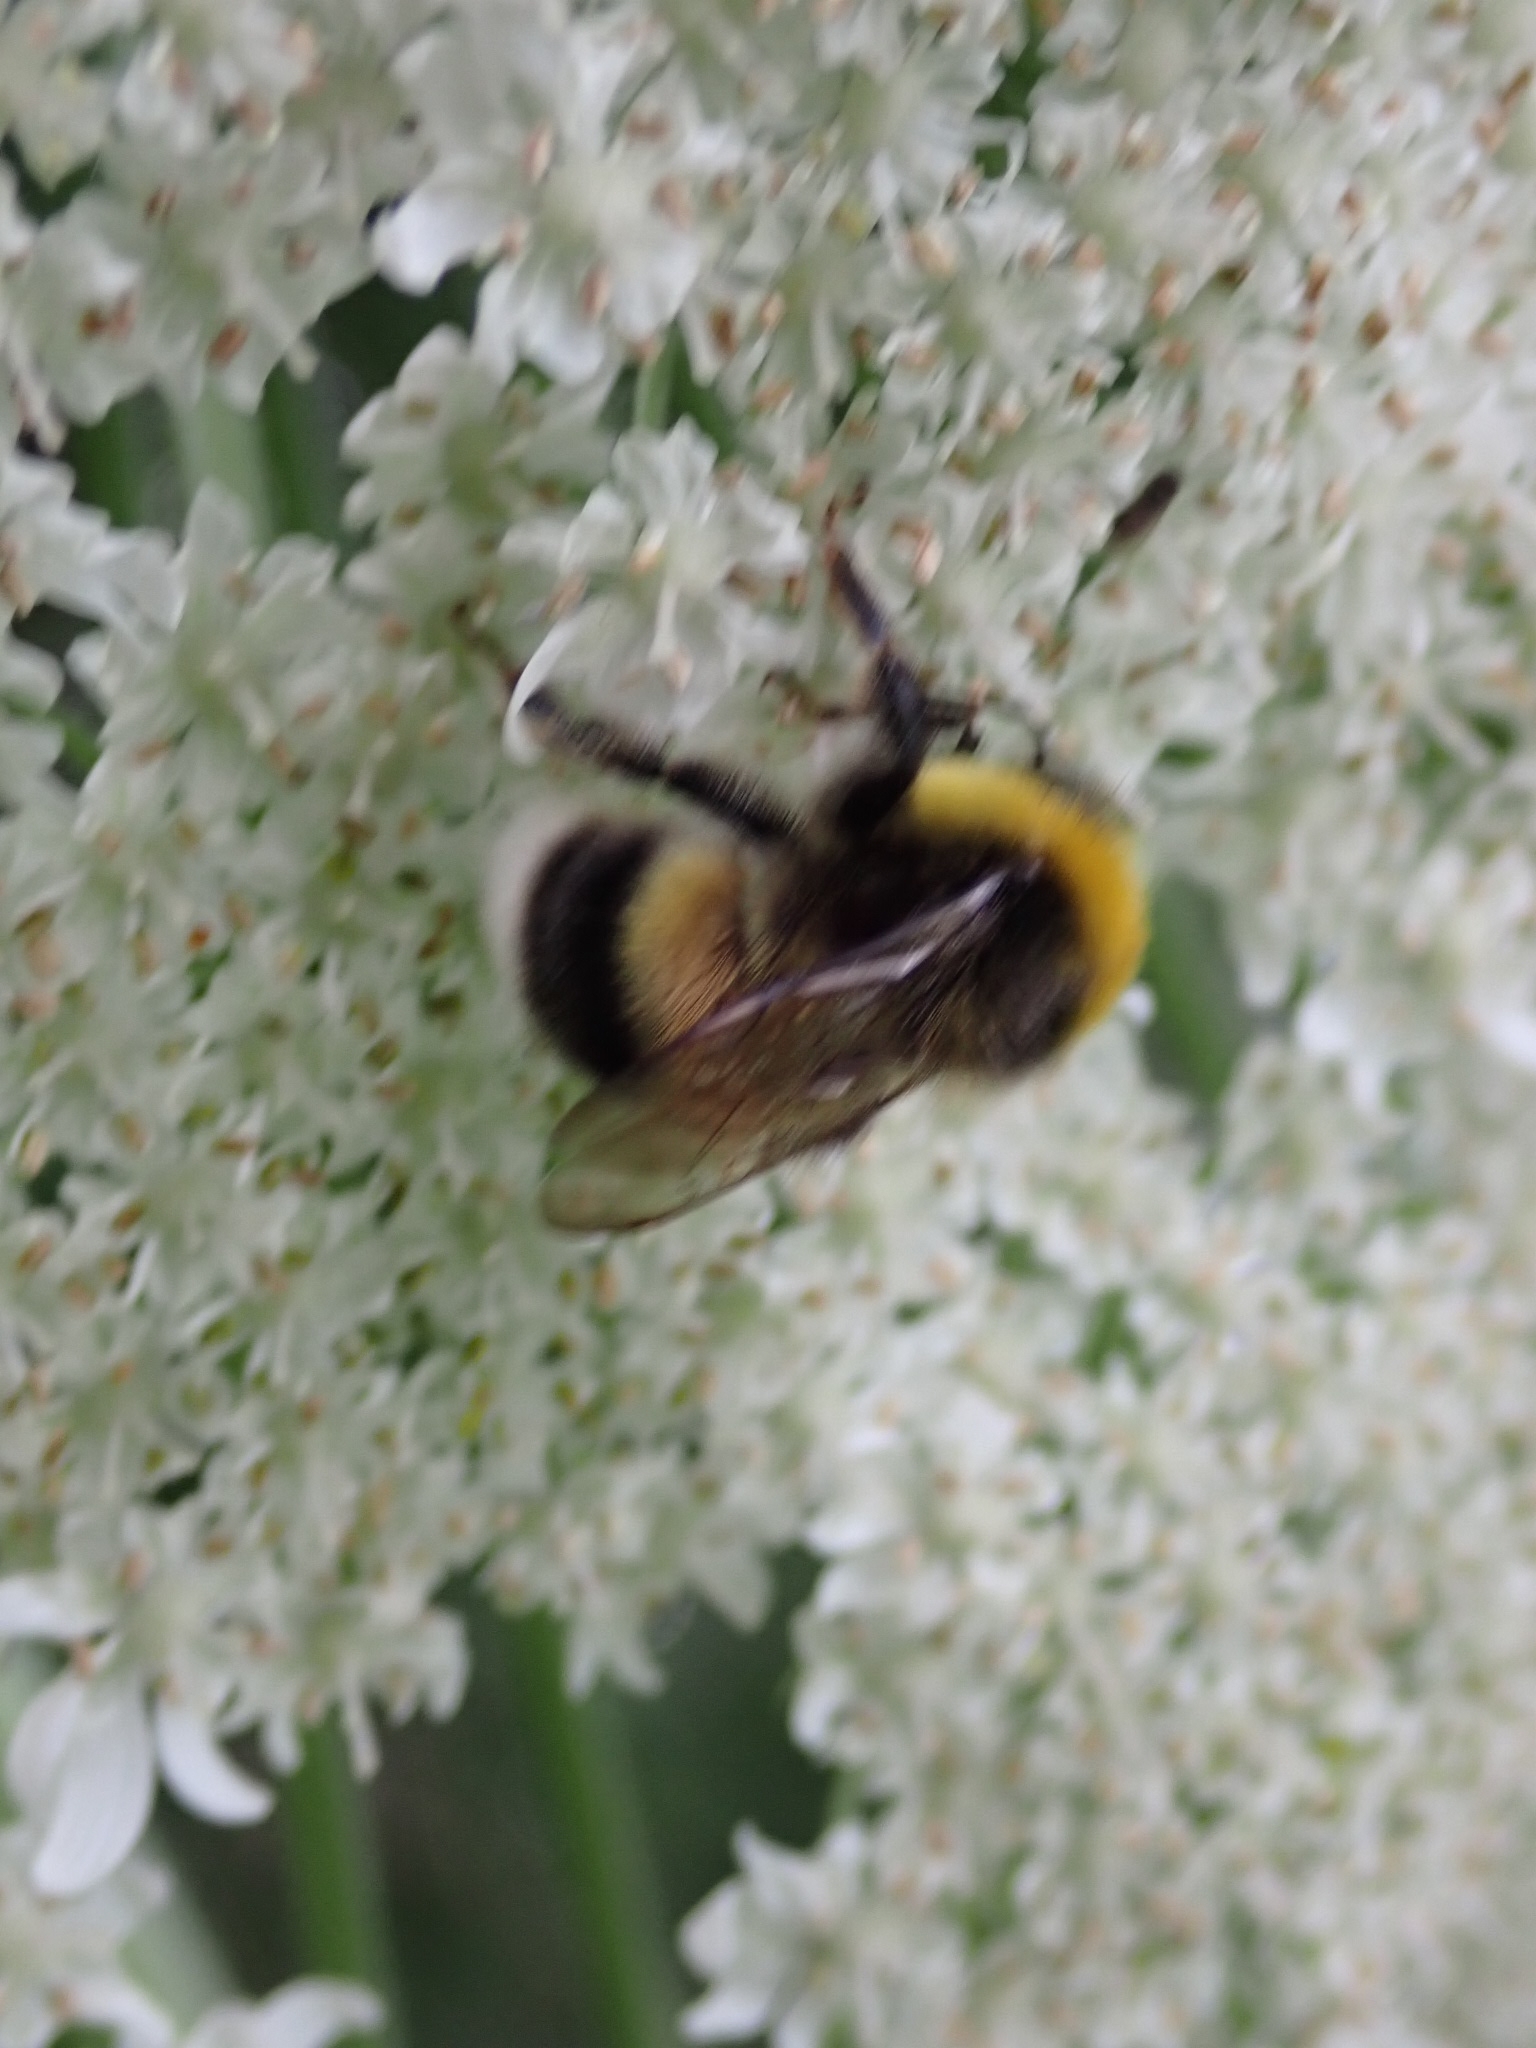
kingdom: Animalia
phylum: Arthropoda
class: Insecta
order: Hymenoptera
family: Apidae
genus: Bombus
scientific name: Bombus lucorum
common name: White-tailed bumblebee
